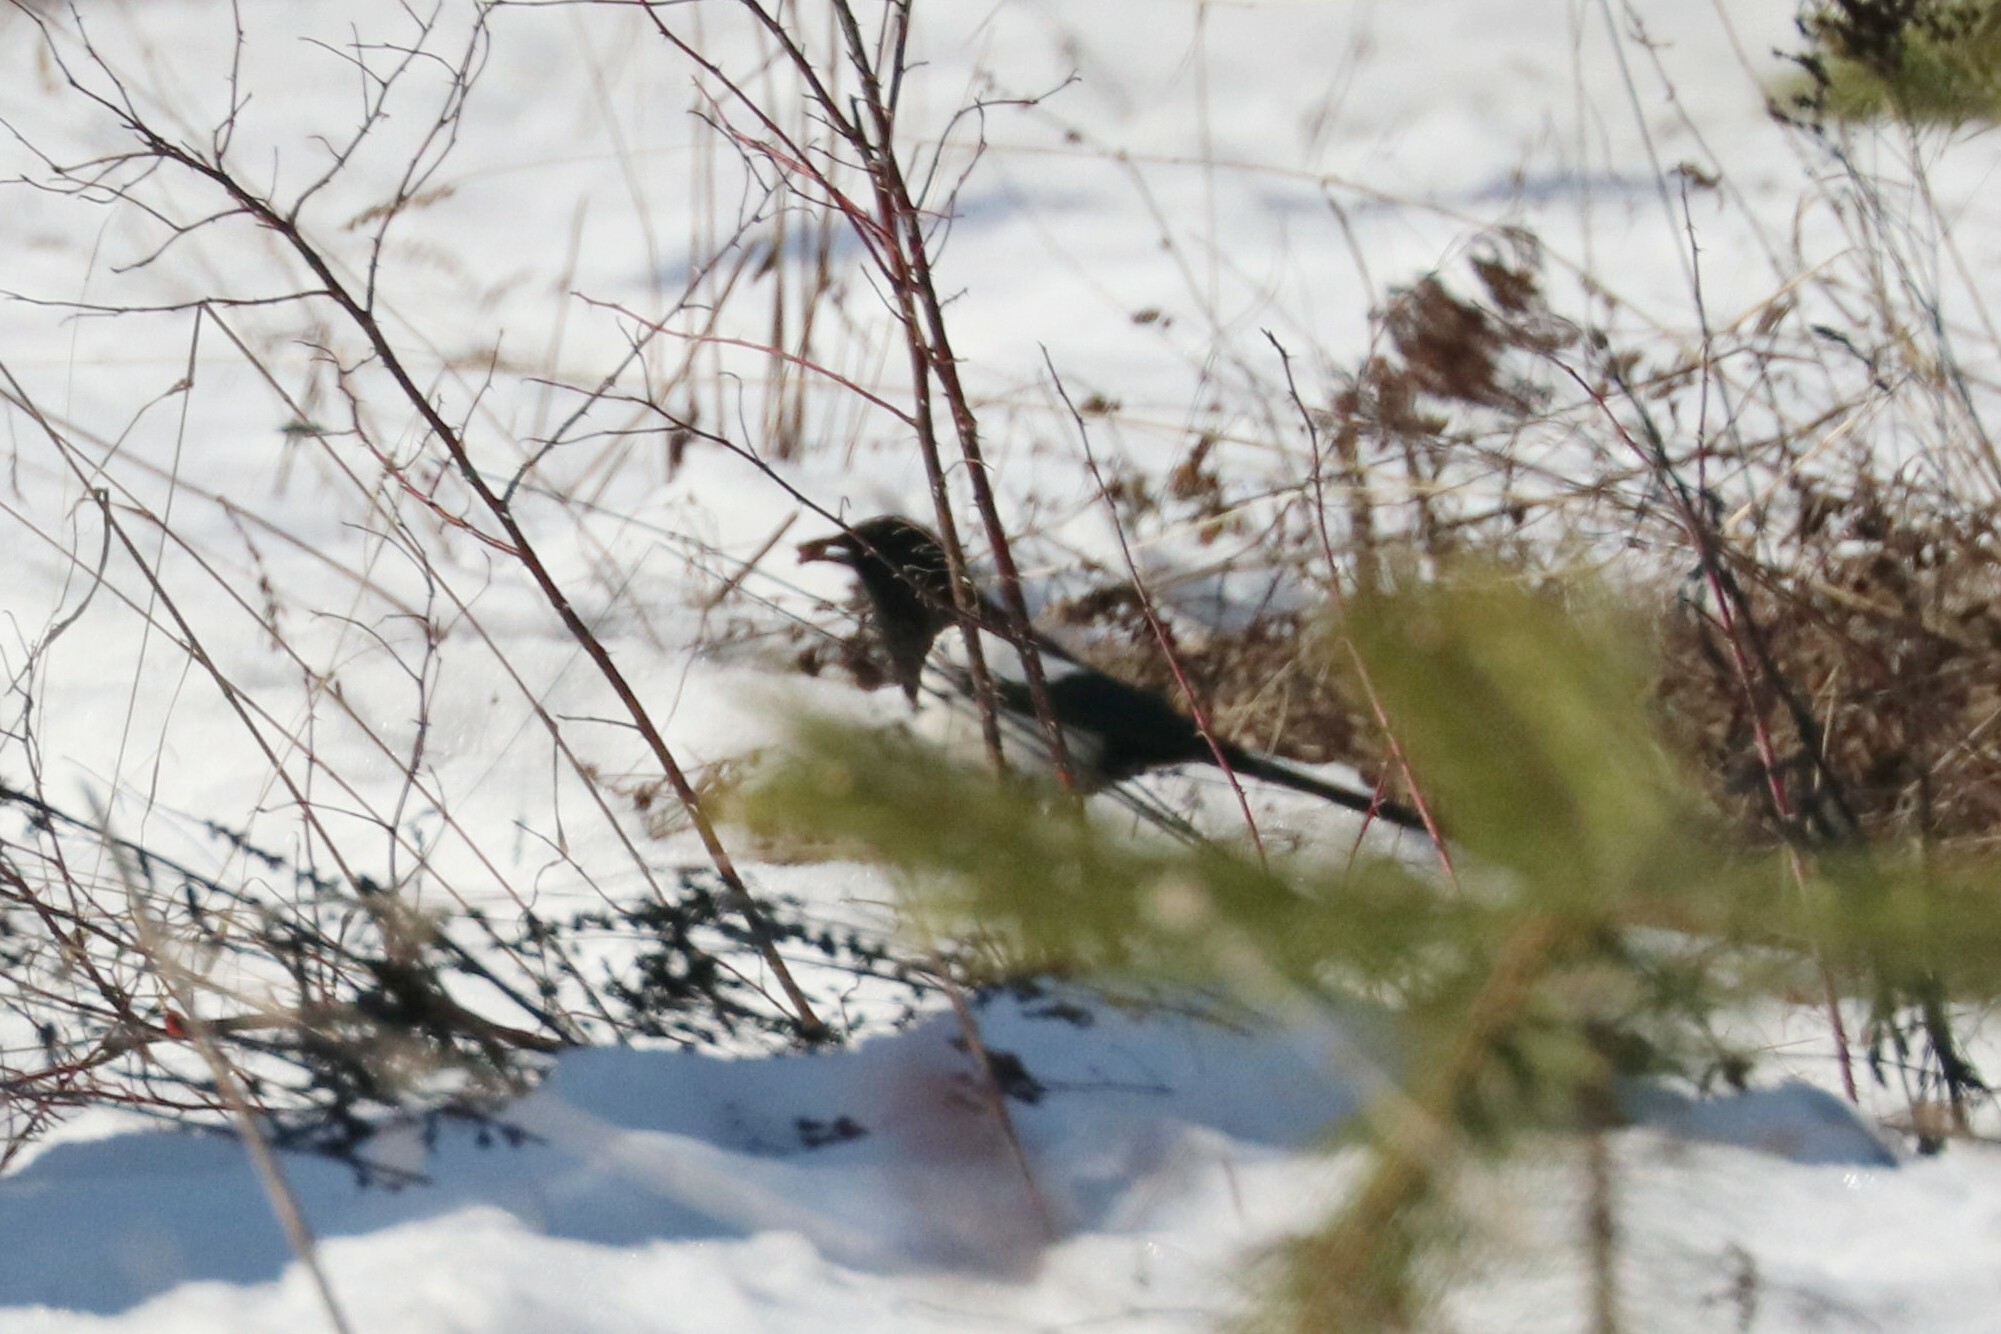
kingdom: Animalia
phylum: Chordata
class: Aves
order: Passeriformes
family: Corvidae
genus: Pica
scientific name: Pica pica
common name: Eurasian magpie
